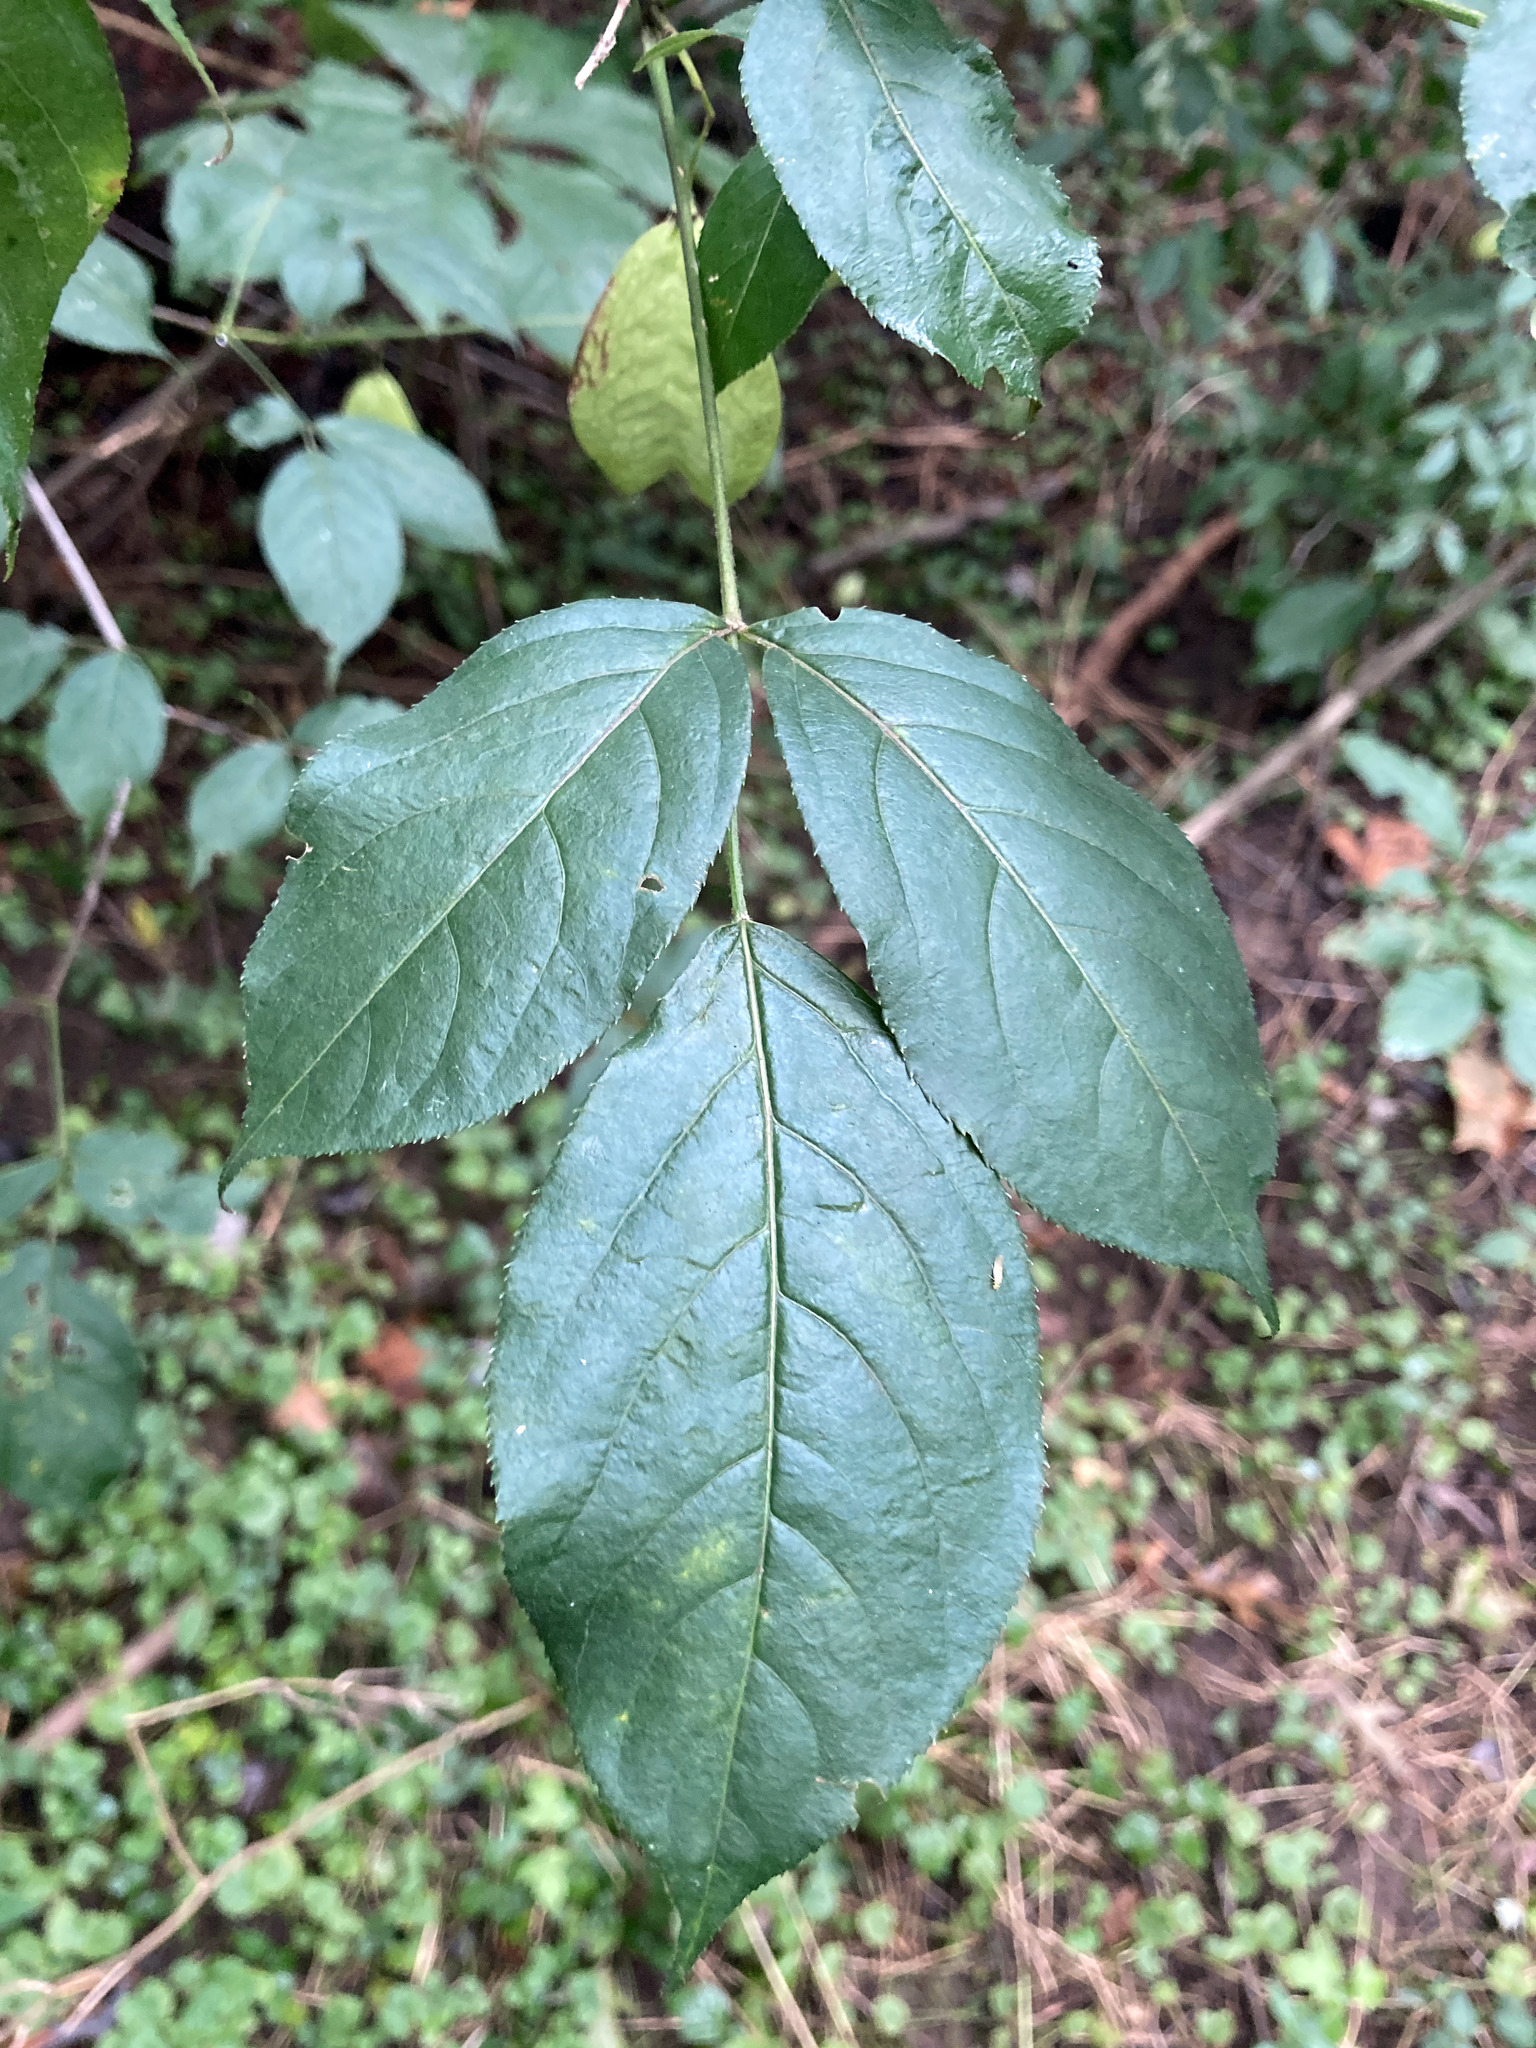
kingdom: Plantae
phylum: Tracheophyta
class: Magnoliopsida
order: Crossosomatales
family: Staphyleaceae
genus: Staphylea
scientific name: Staphylea trifolia
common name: American bladdernut
